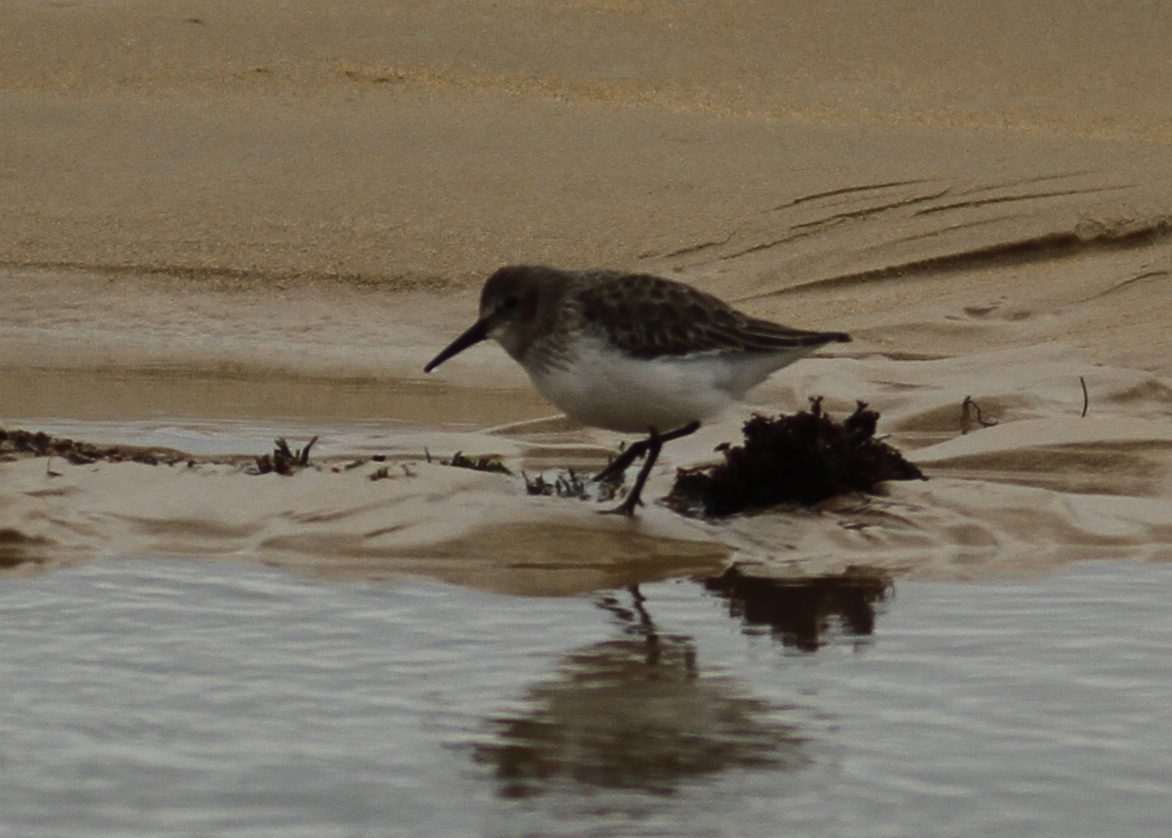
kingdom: Animalia
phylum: Chordata
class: Aves
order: Charadriiformes
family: Scolopacidae
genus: Calidris
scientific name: Calidris alpina
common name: Dunlin
